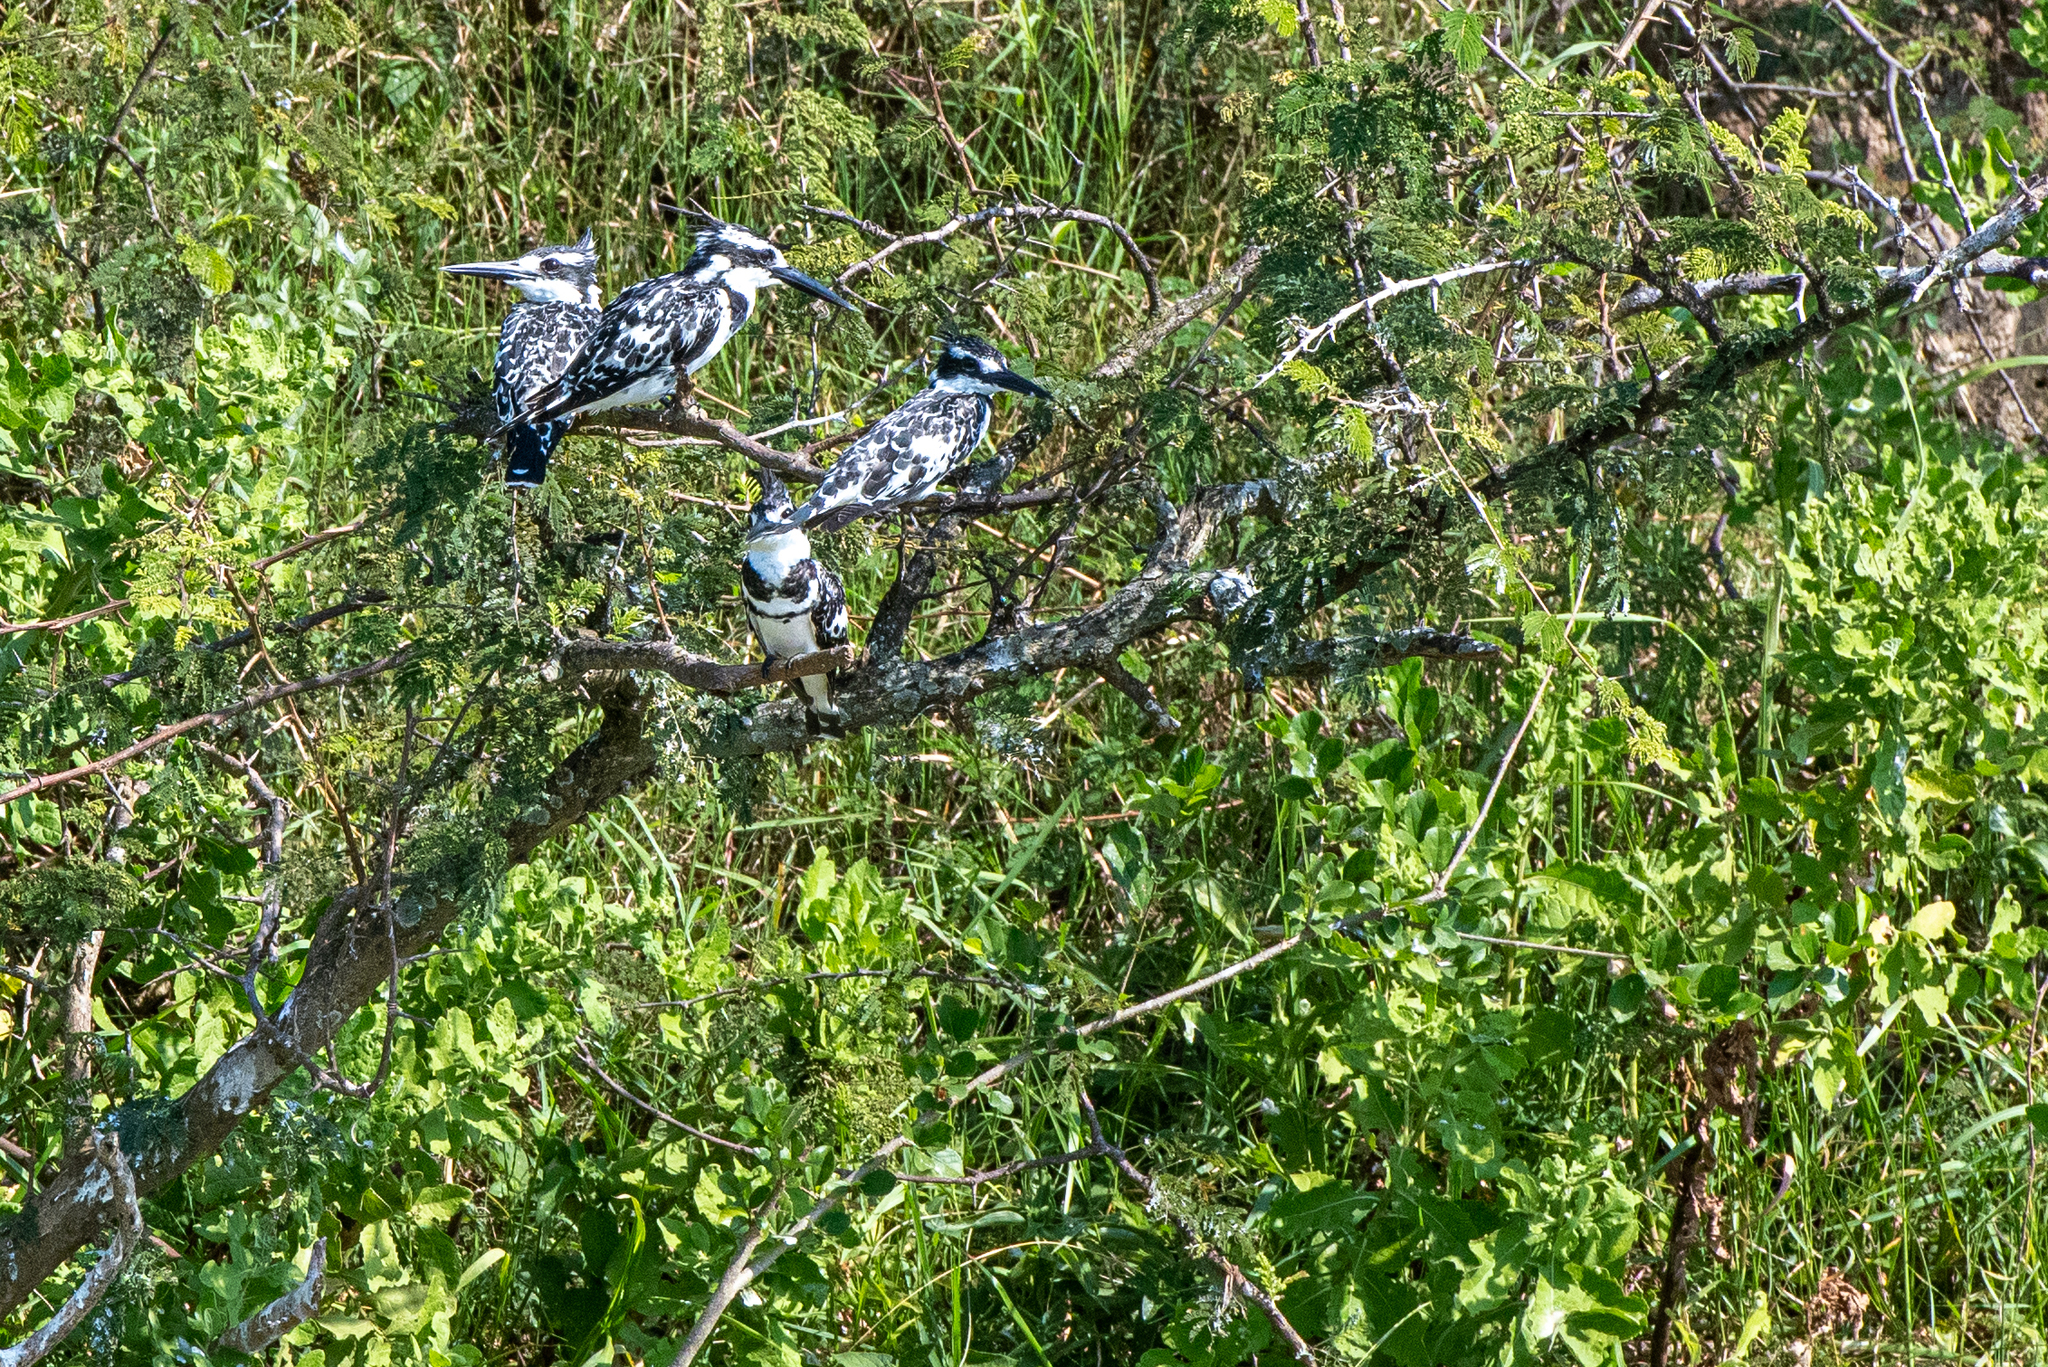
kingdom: Animalia
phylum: Chordata
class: Aves
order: Coraciiformes
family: Alcedinidae
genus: Ceryle
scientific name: Ceryle rudis
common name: Pied kingfisher
